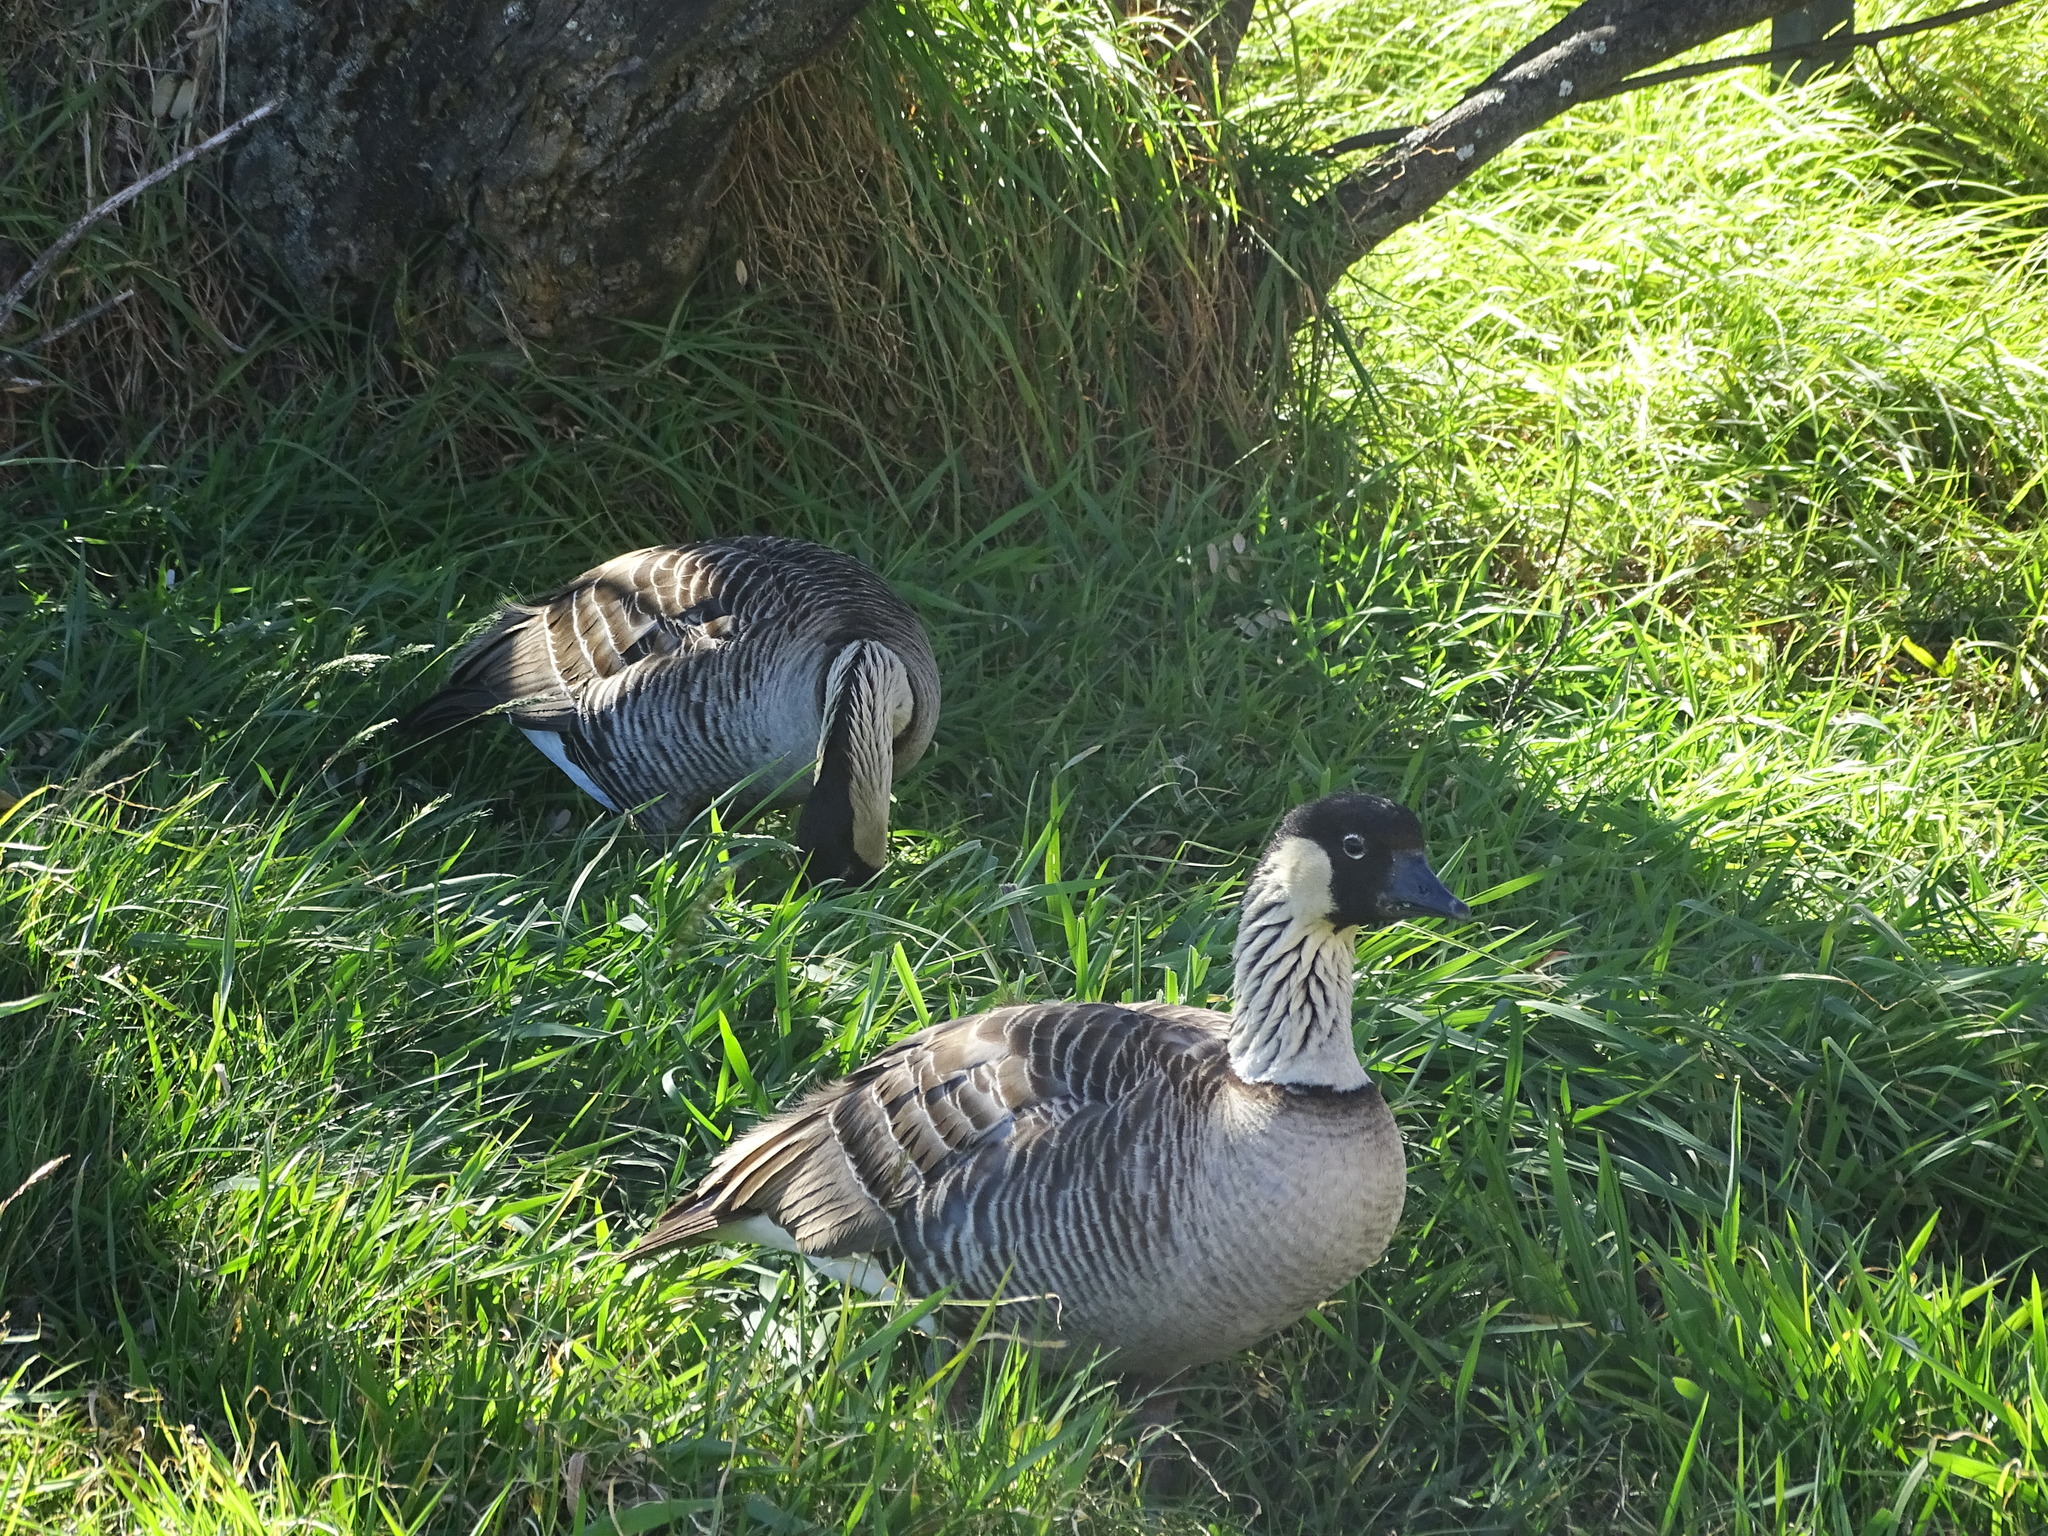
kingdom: Animalia
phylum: Chordata
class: Aves
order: Anseriformes
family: Anatidae
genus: Branta
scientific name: Branta sandvicensis
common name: Nene
